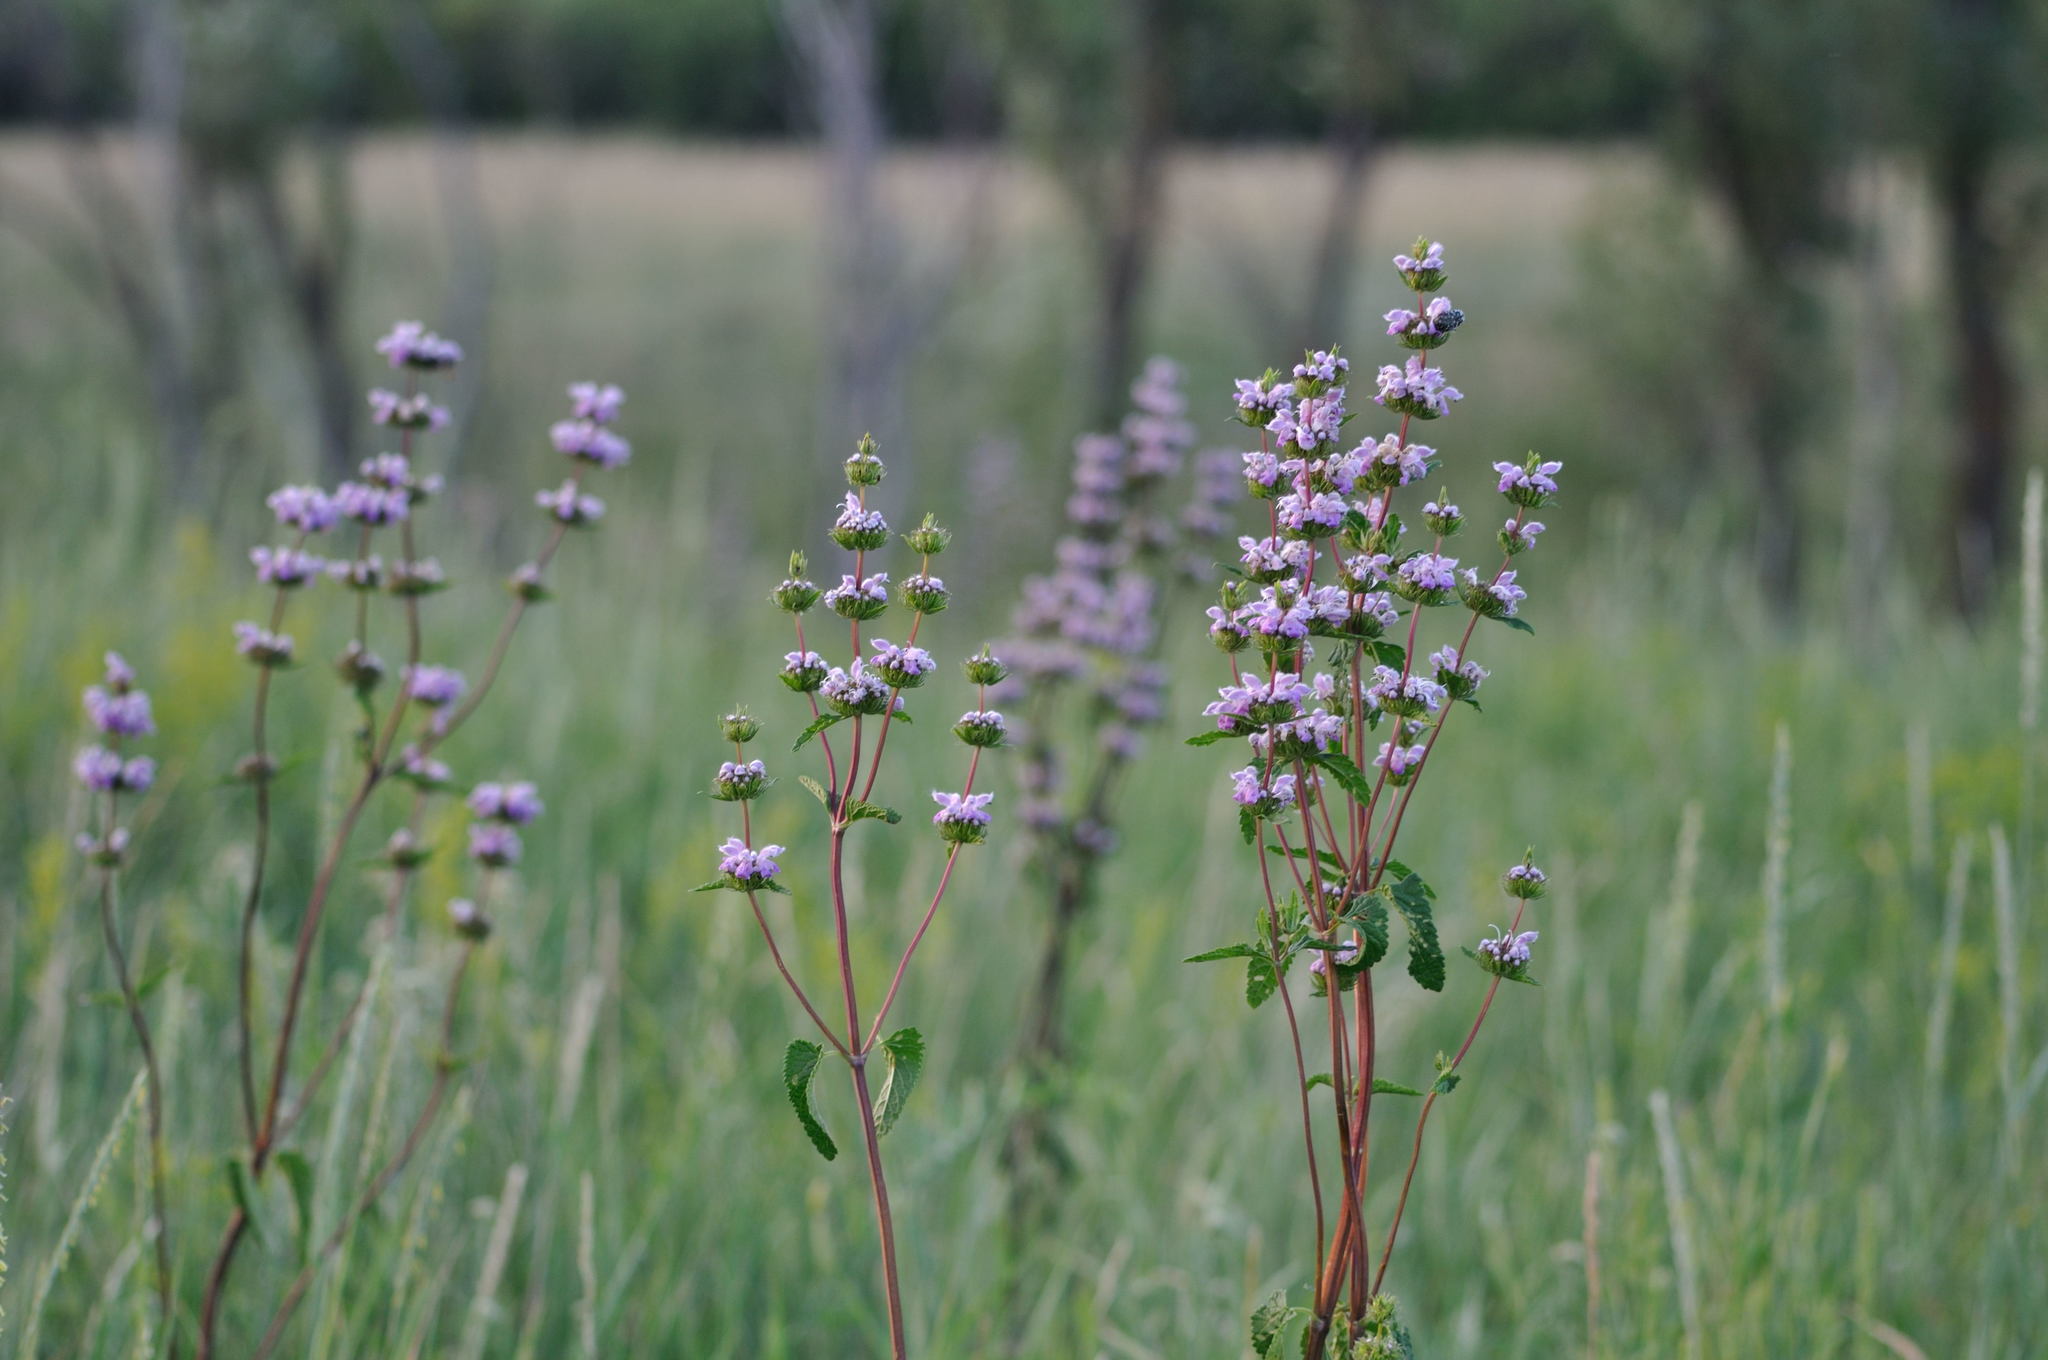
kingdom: Plantae
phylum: Tracheophyta
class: Magnoliopsida
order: Lamiales
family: Lamiaceae
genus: Phlomoides
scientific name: Phlomoides tuberosa
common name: Tuberous jerusalem sage
